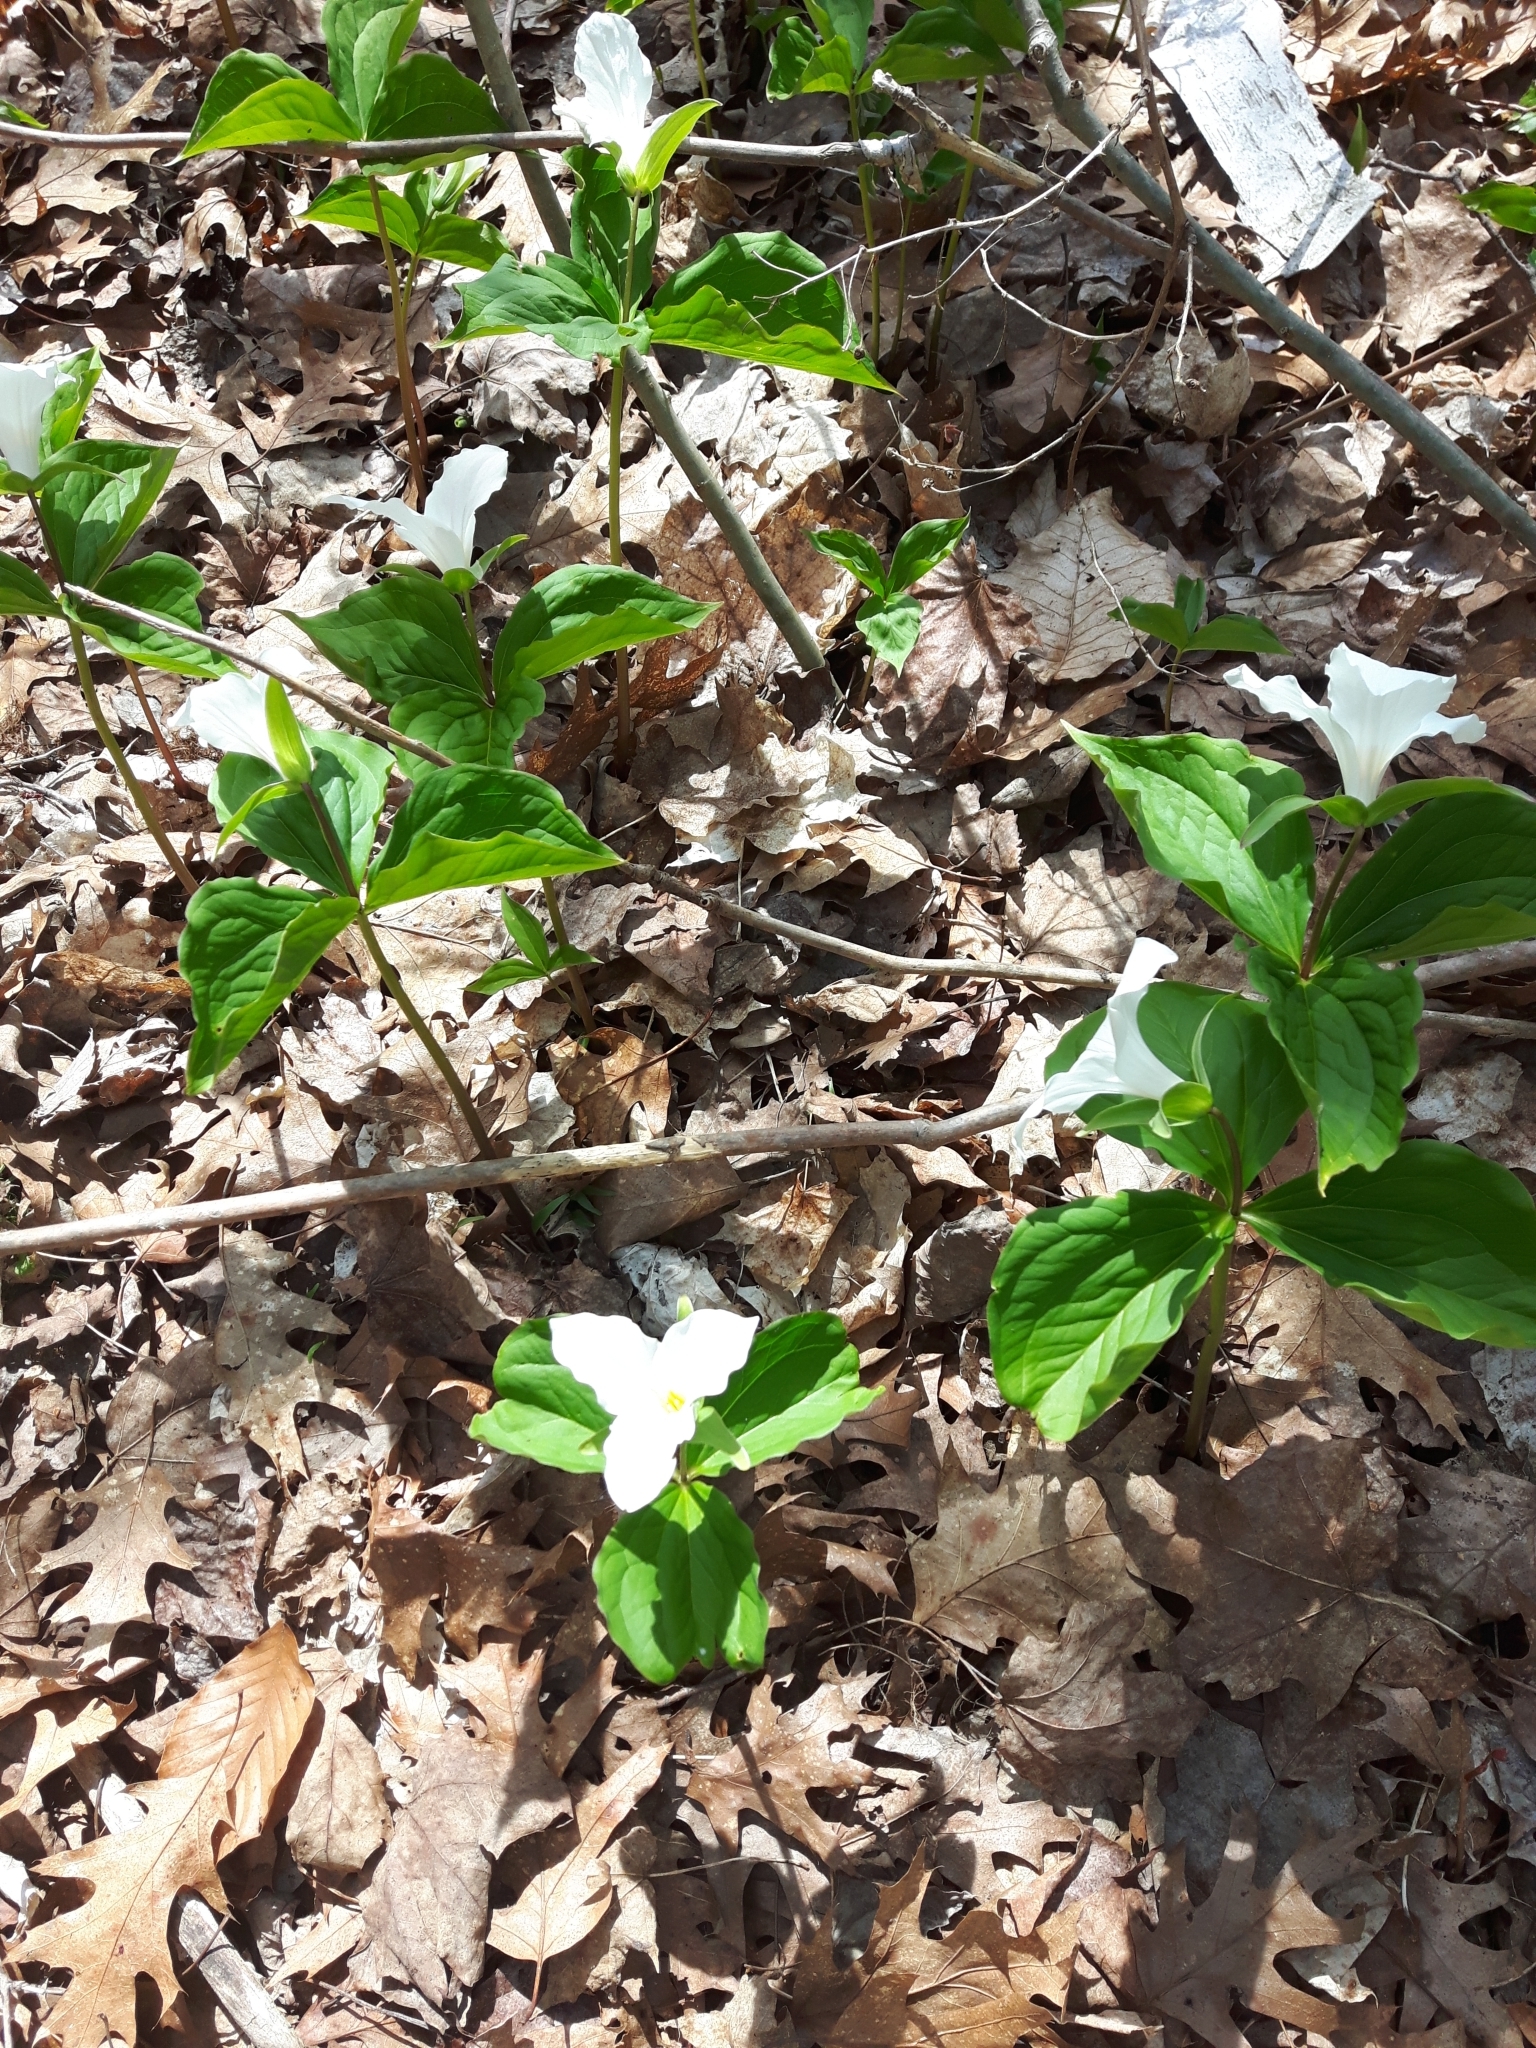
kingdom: Plantae
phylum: Tracheophyta
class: Liliopsida
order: Liliales
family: Melanthiaceae
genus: Trillium
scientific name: Trillium grandiflorum
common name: Great white trillium
